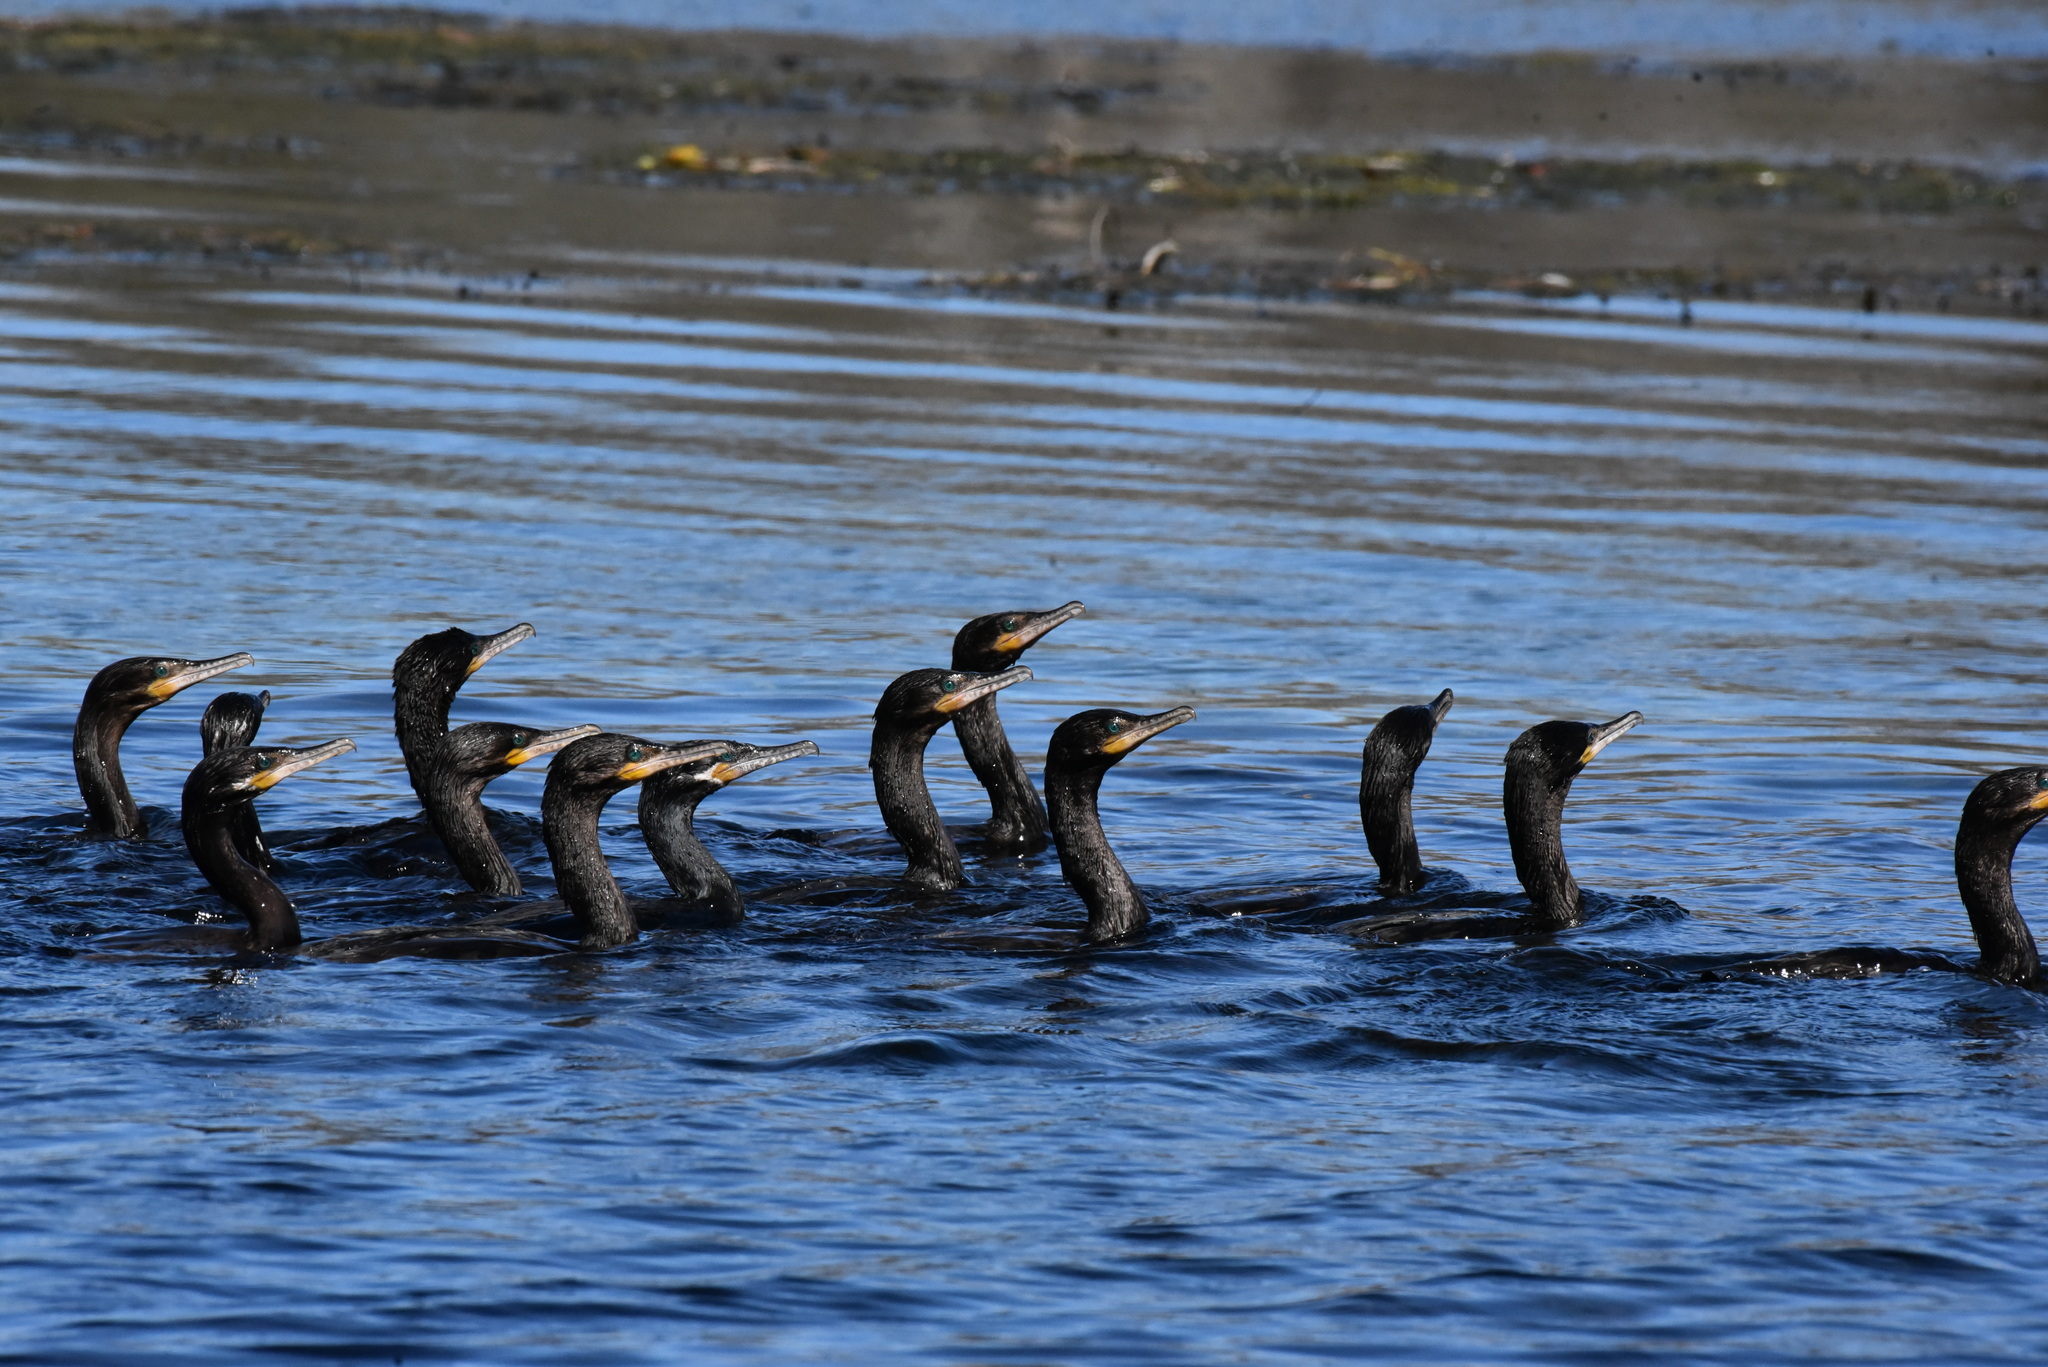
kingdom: Animalia
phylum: Chordata
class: Aves
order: Suliformes
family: Phalacrocoracidae
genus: Phalacrocorax
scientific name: Phalacrocorax brasilianus
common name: Neotropic cormorant
